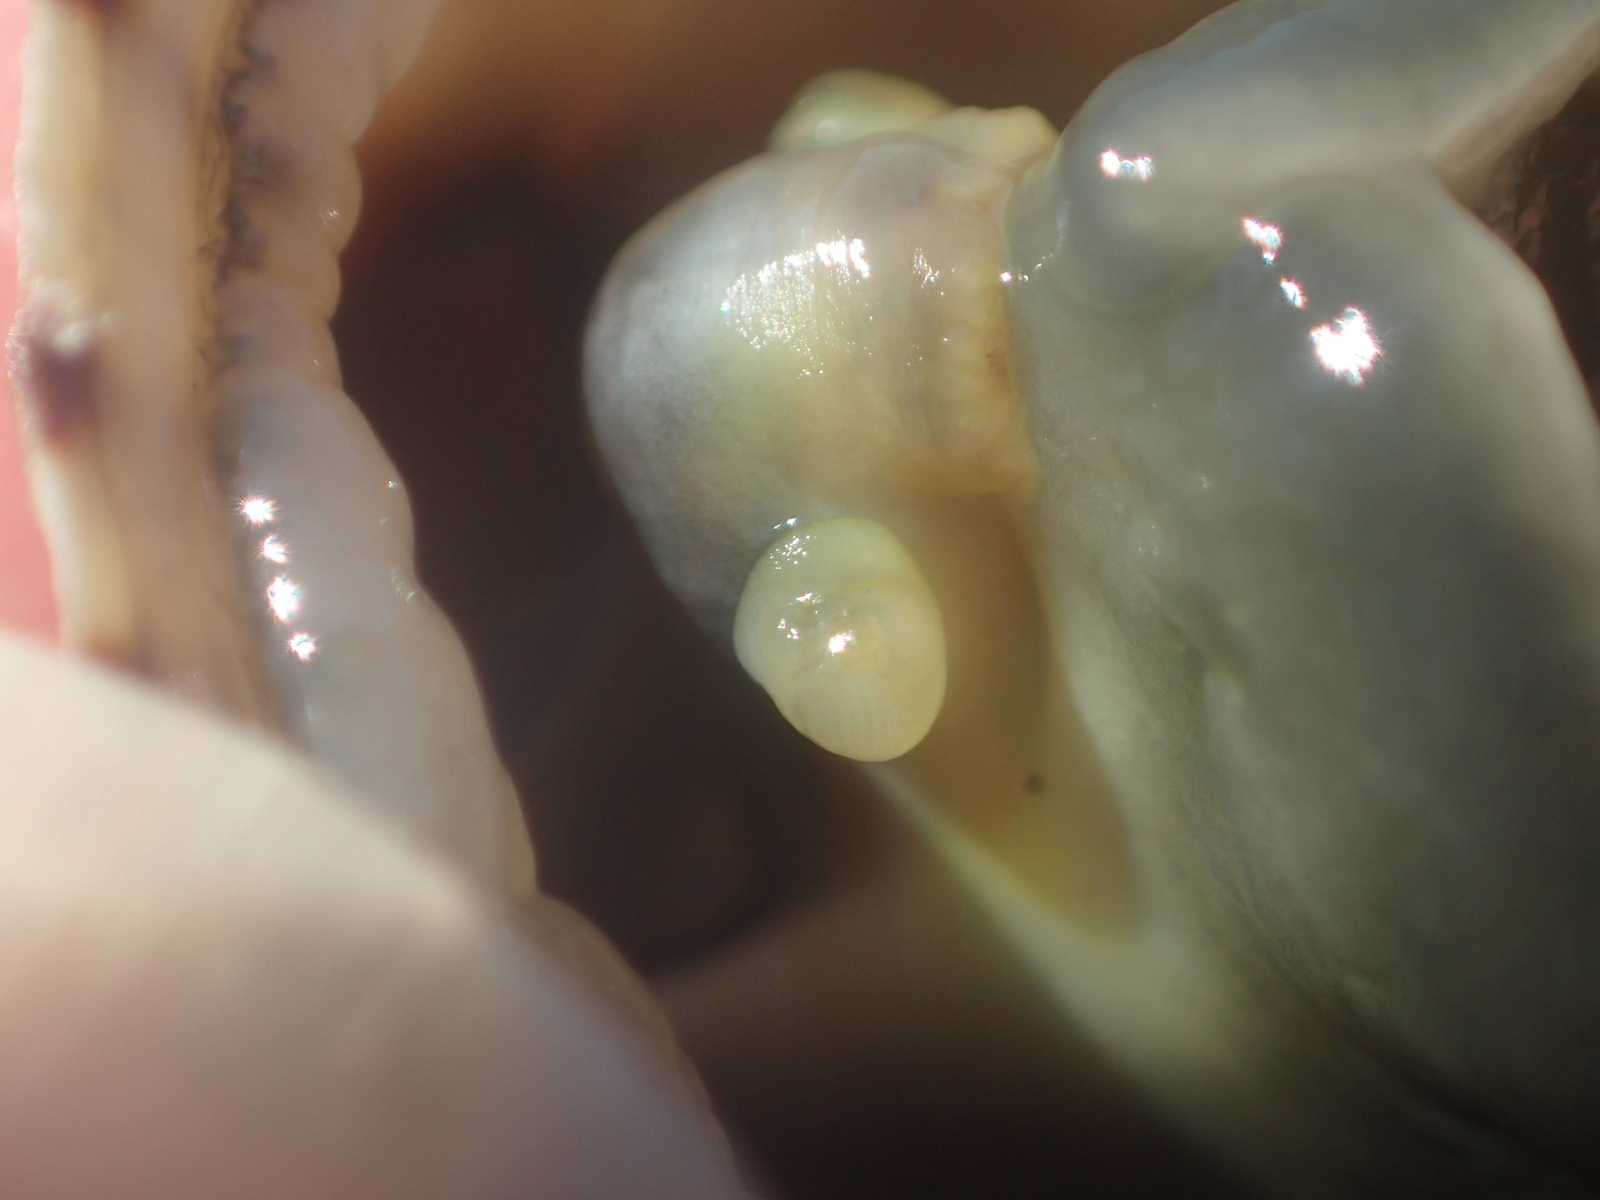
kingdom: Animalia
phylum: Mollusca
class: Gastropoda
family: Nacellidae
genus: Cellana
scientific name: Cellana radians
